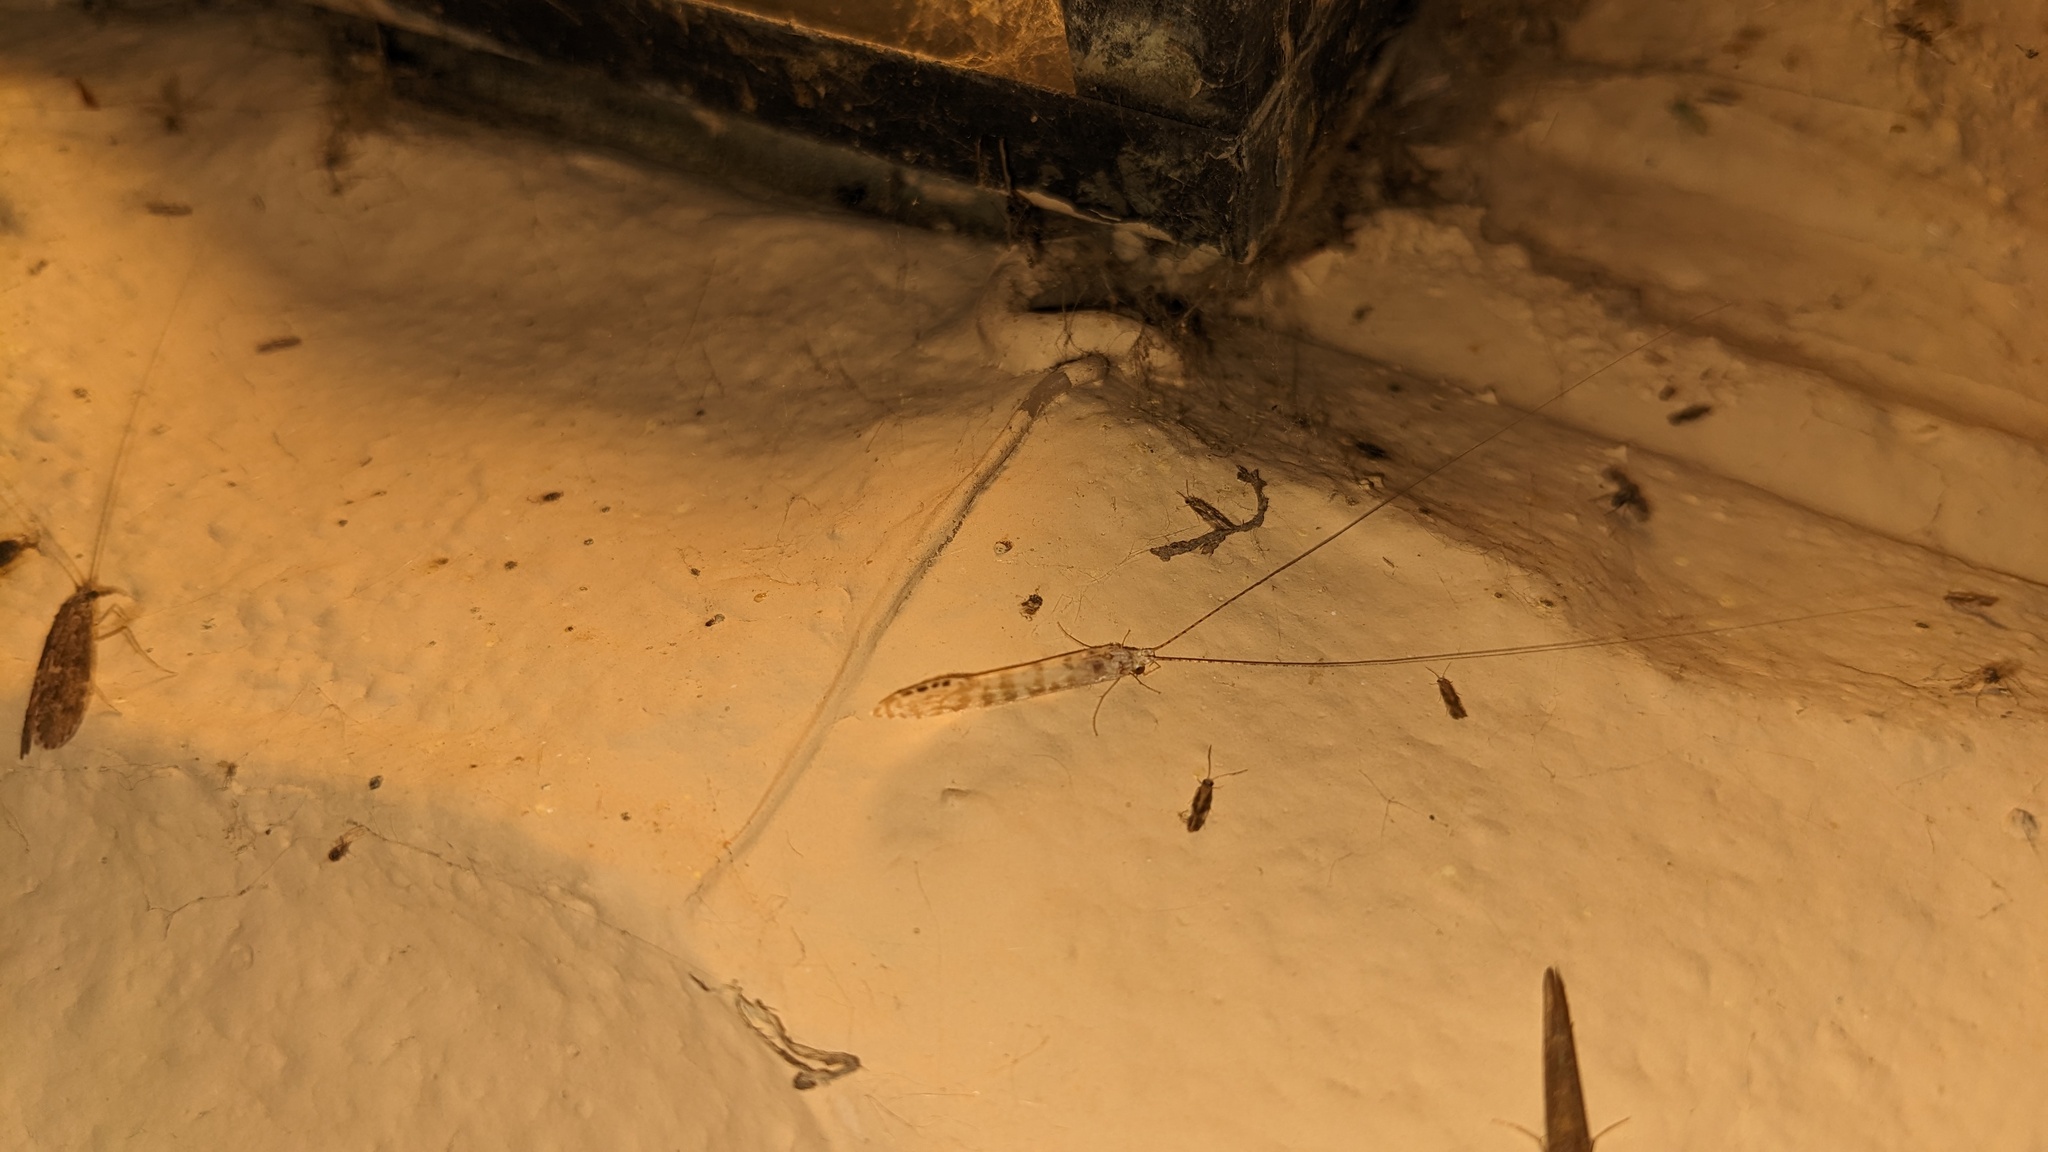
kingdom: Animalia
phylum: Arthropoda
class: Insecta
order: Trichoptera
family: Leptoceridae
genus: Nectopsyche
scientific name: Nectopsyche exquisita
